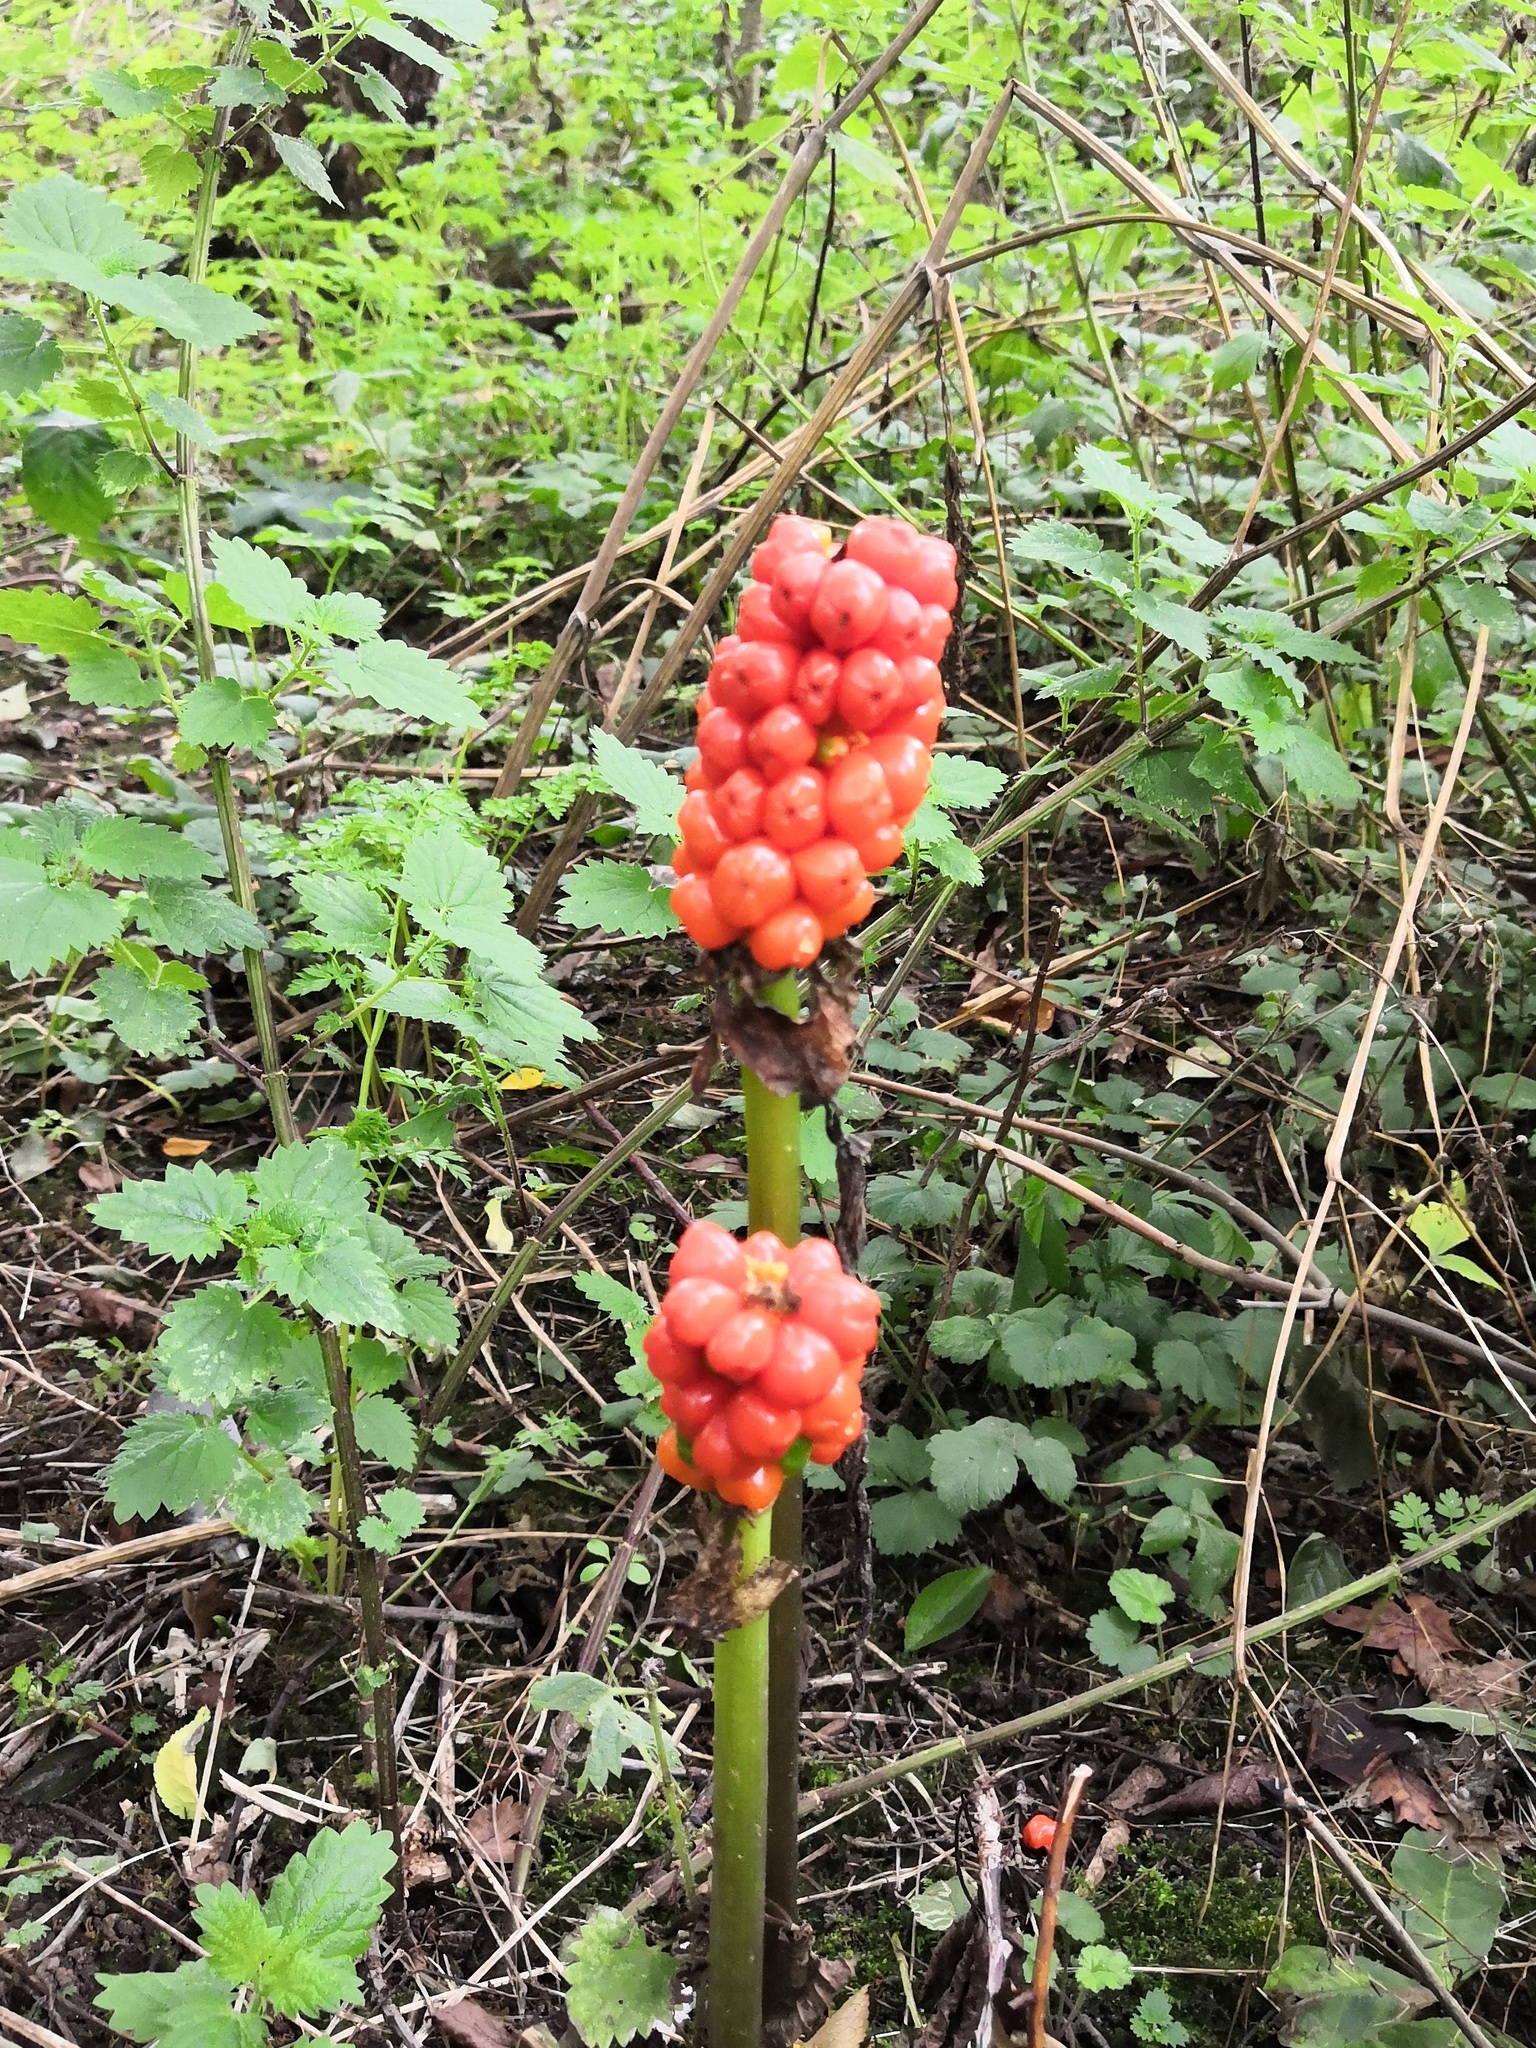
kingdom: Plantae
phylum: Tracheophyta
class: Liliopsida
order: Alismatales
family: Araceae
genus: Arum
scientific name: Arum maculatum
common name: Lords-and-ladies
